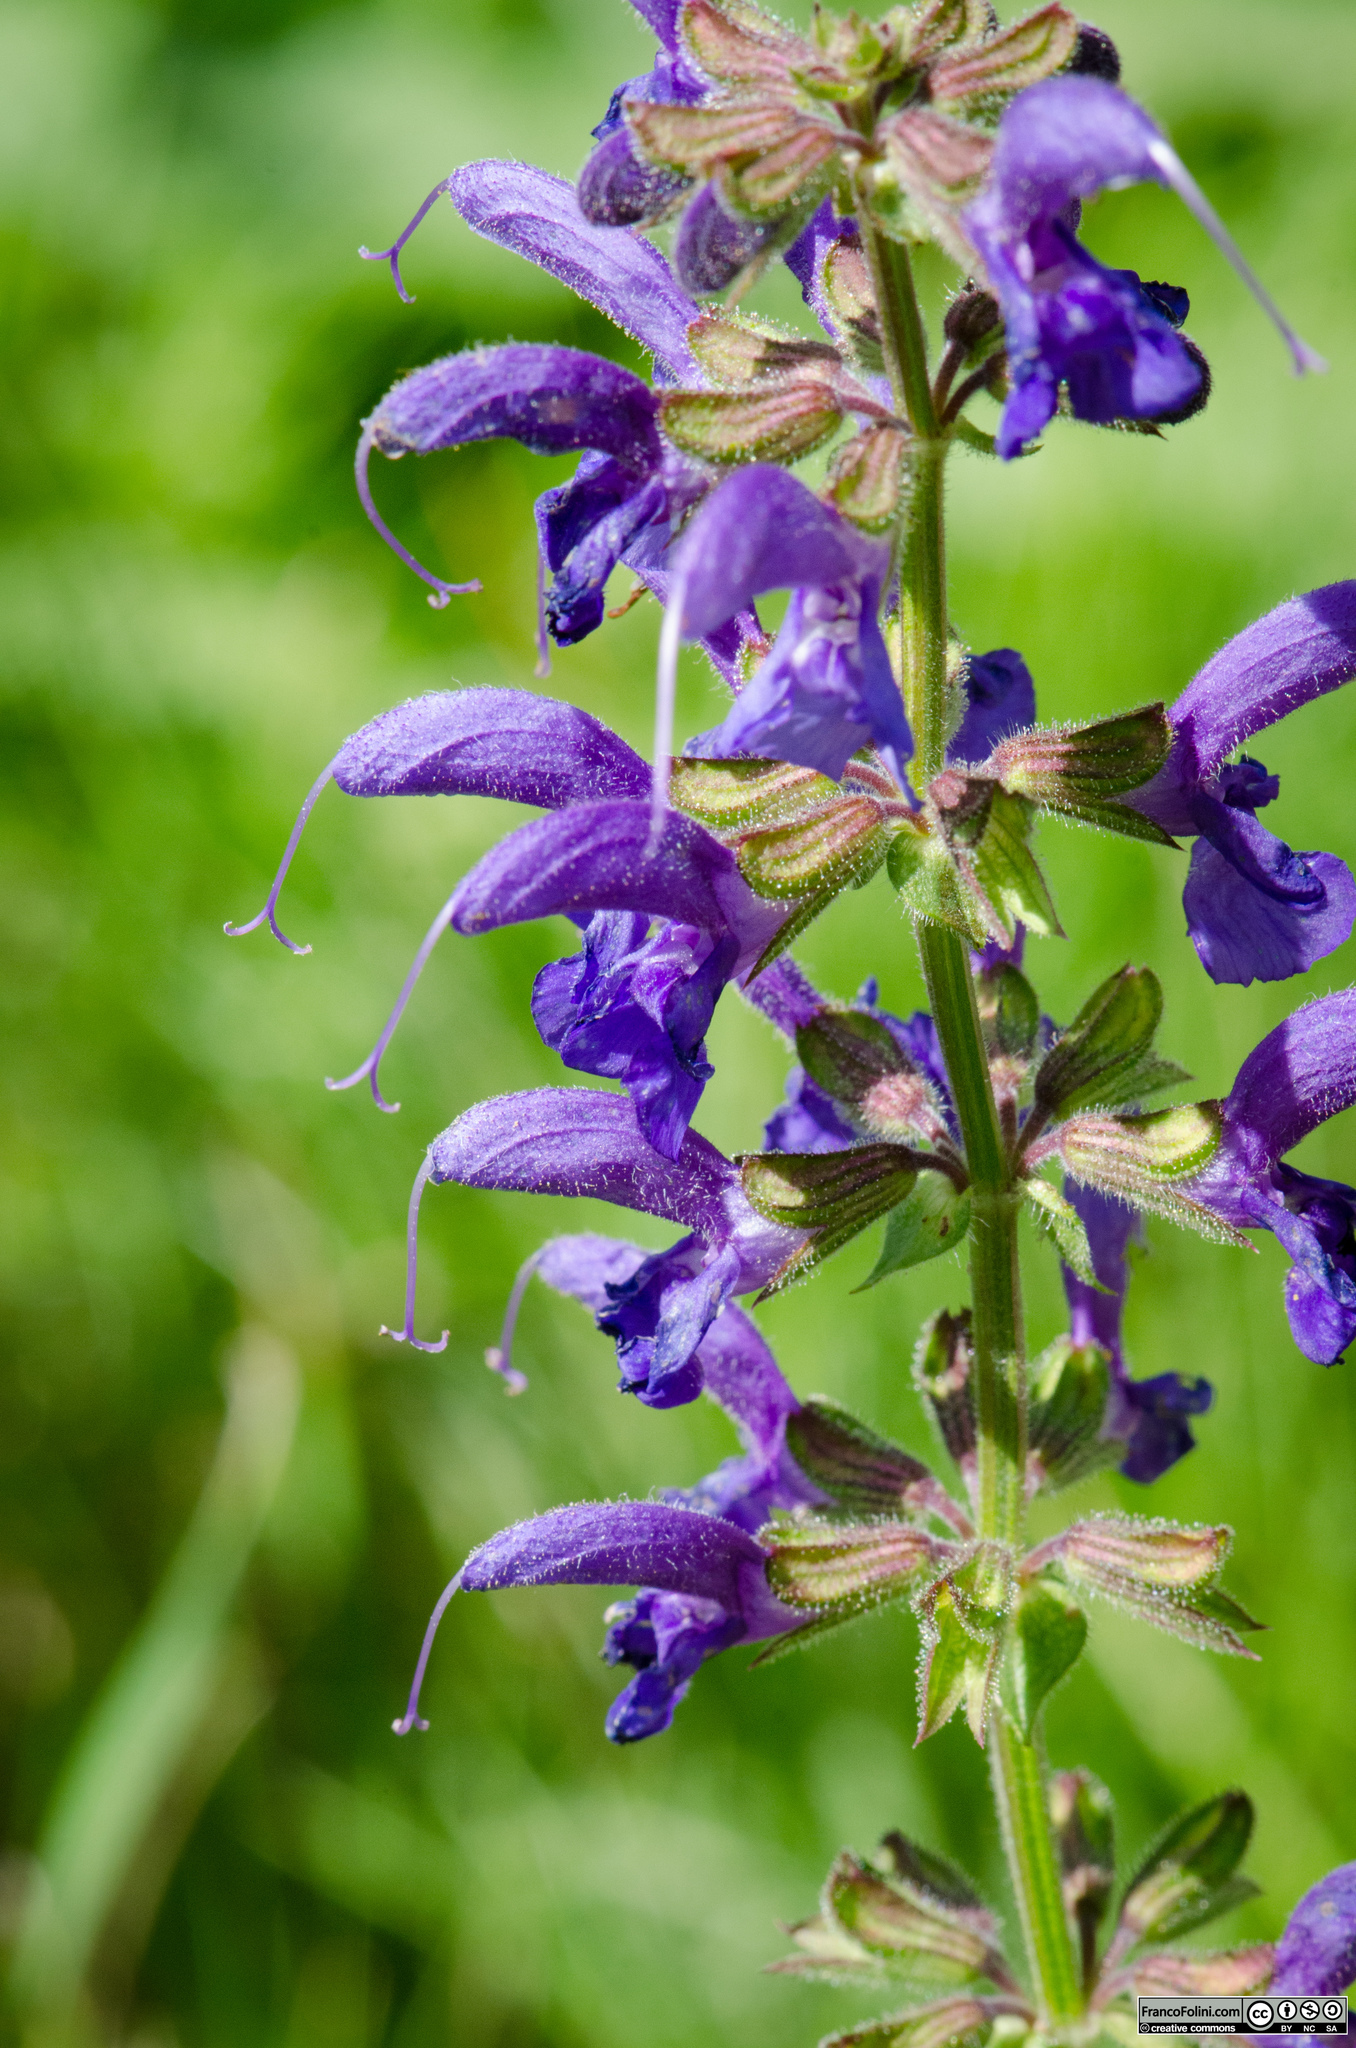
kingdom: Plantae
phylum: Tracheophyta
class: Magnoliopsida
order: Lamiales
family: Lamiaceae
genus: Salvia
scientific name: Salvia pratensis
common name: Meadow sage
